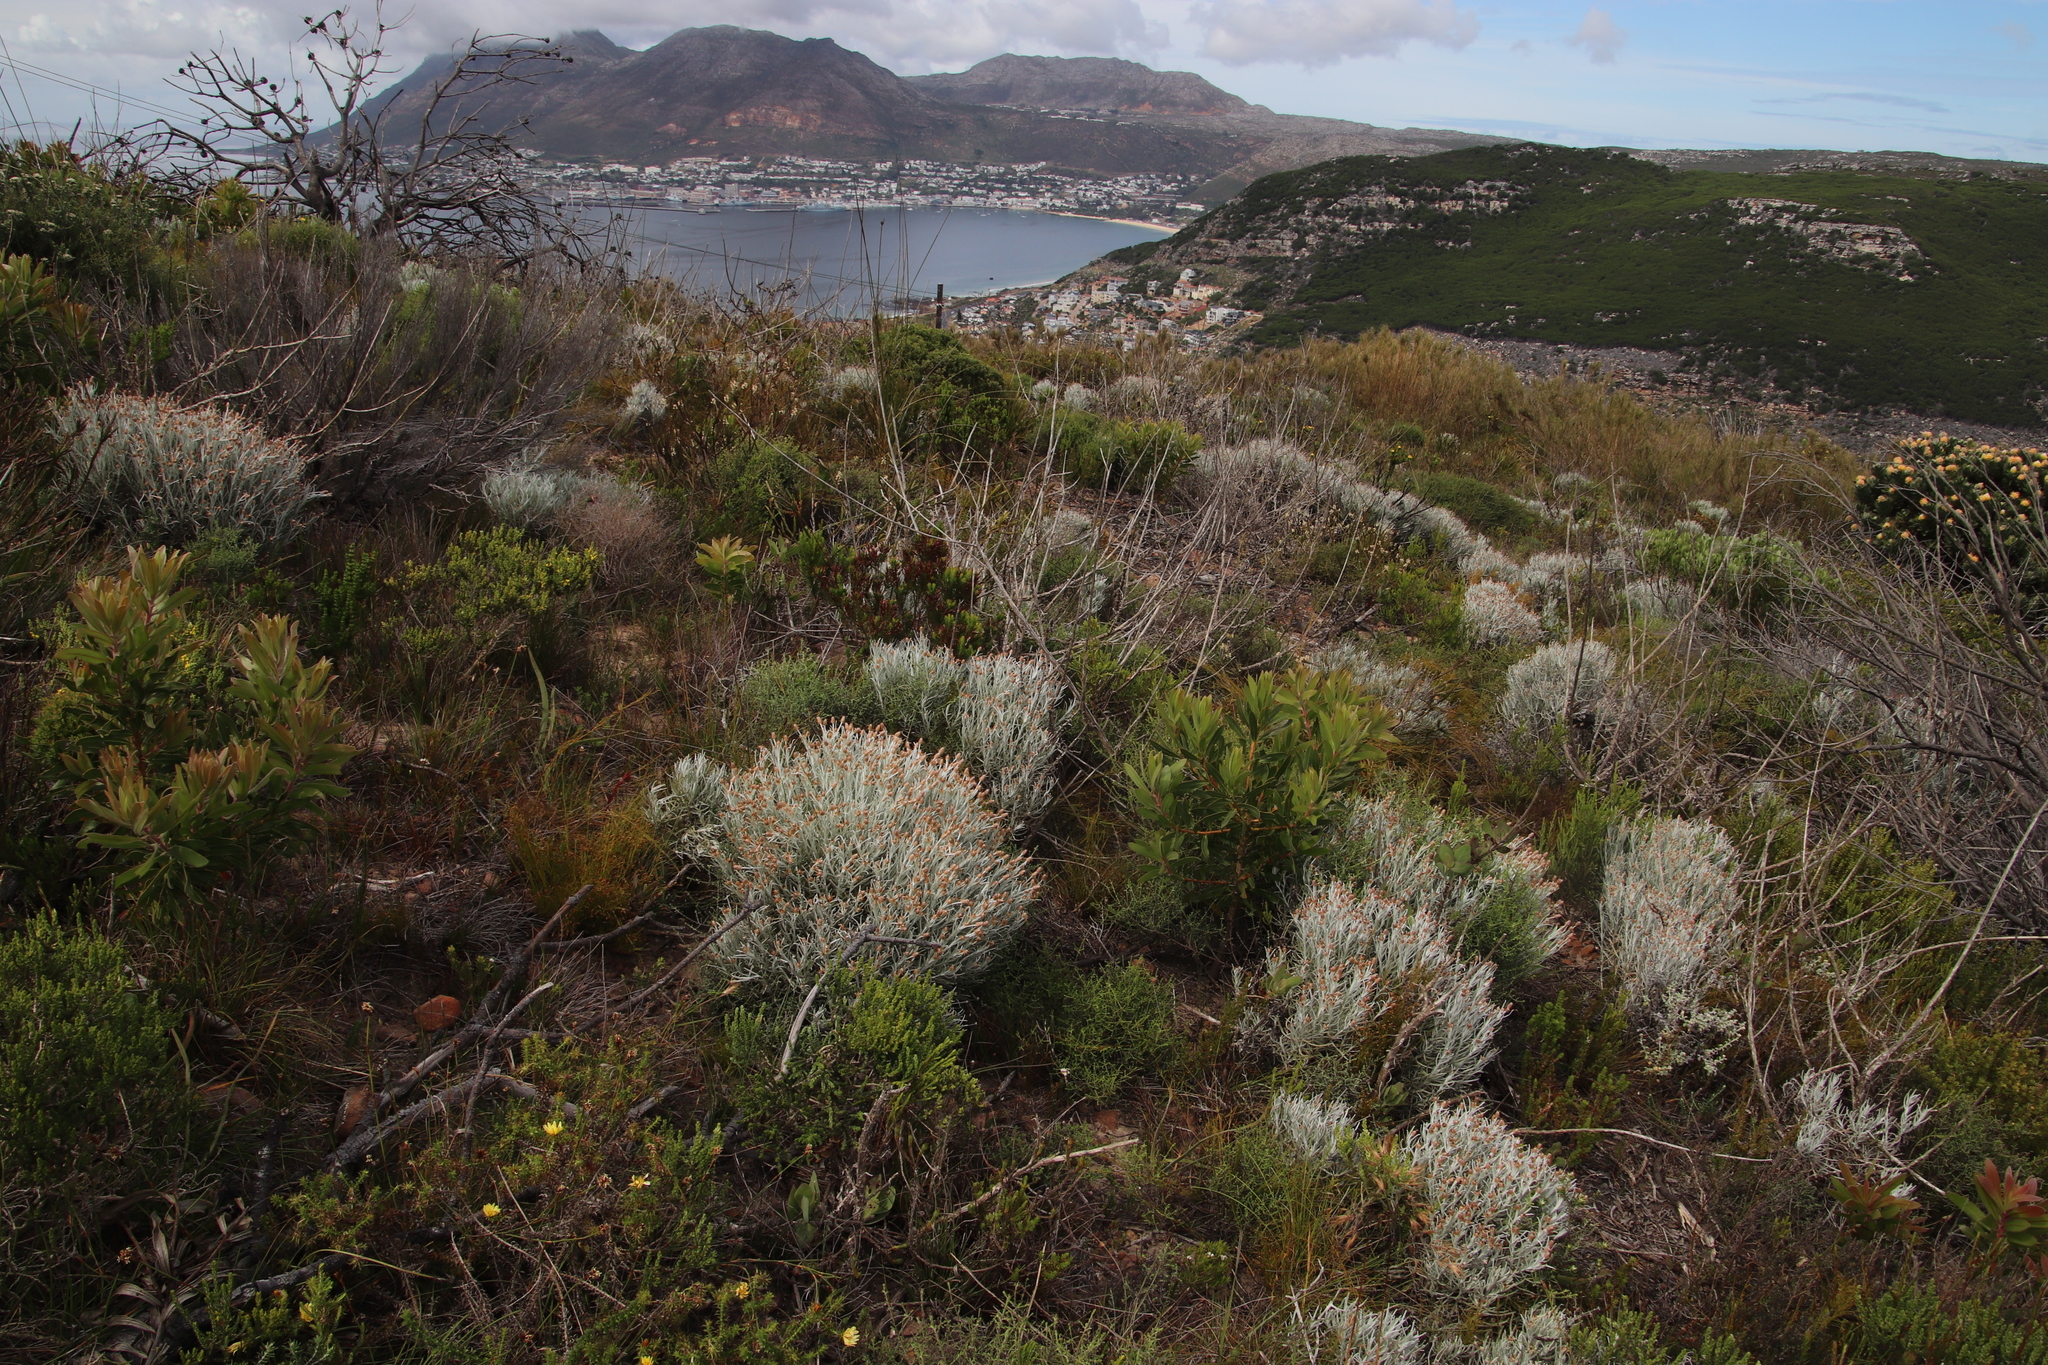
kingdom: Plantae
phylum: Tracheophyta
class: Magnoliopsida
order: Asterales
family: Asteraceae
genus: Syncarpha
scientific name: Syncarpha gnaphaloides
